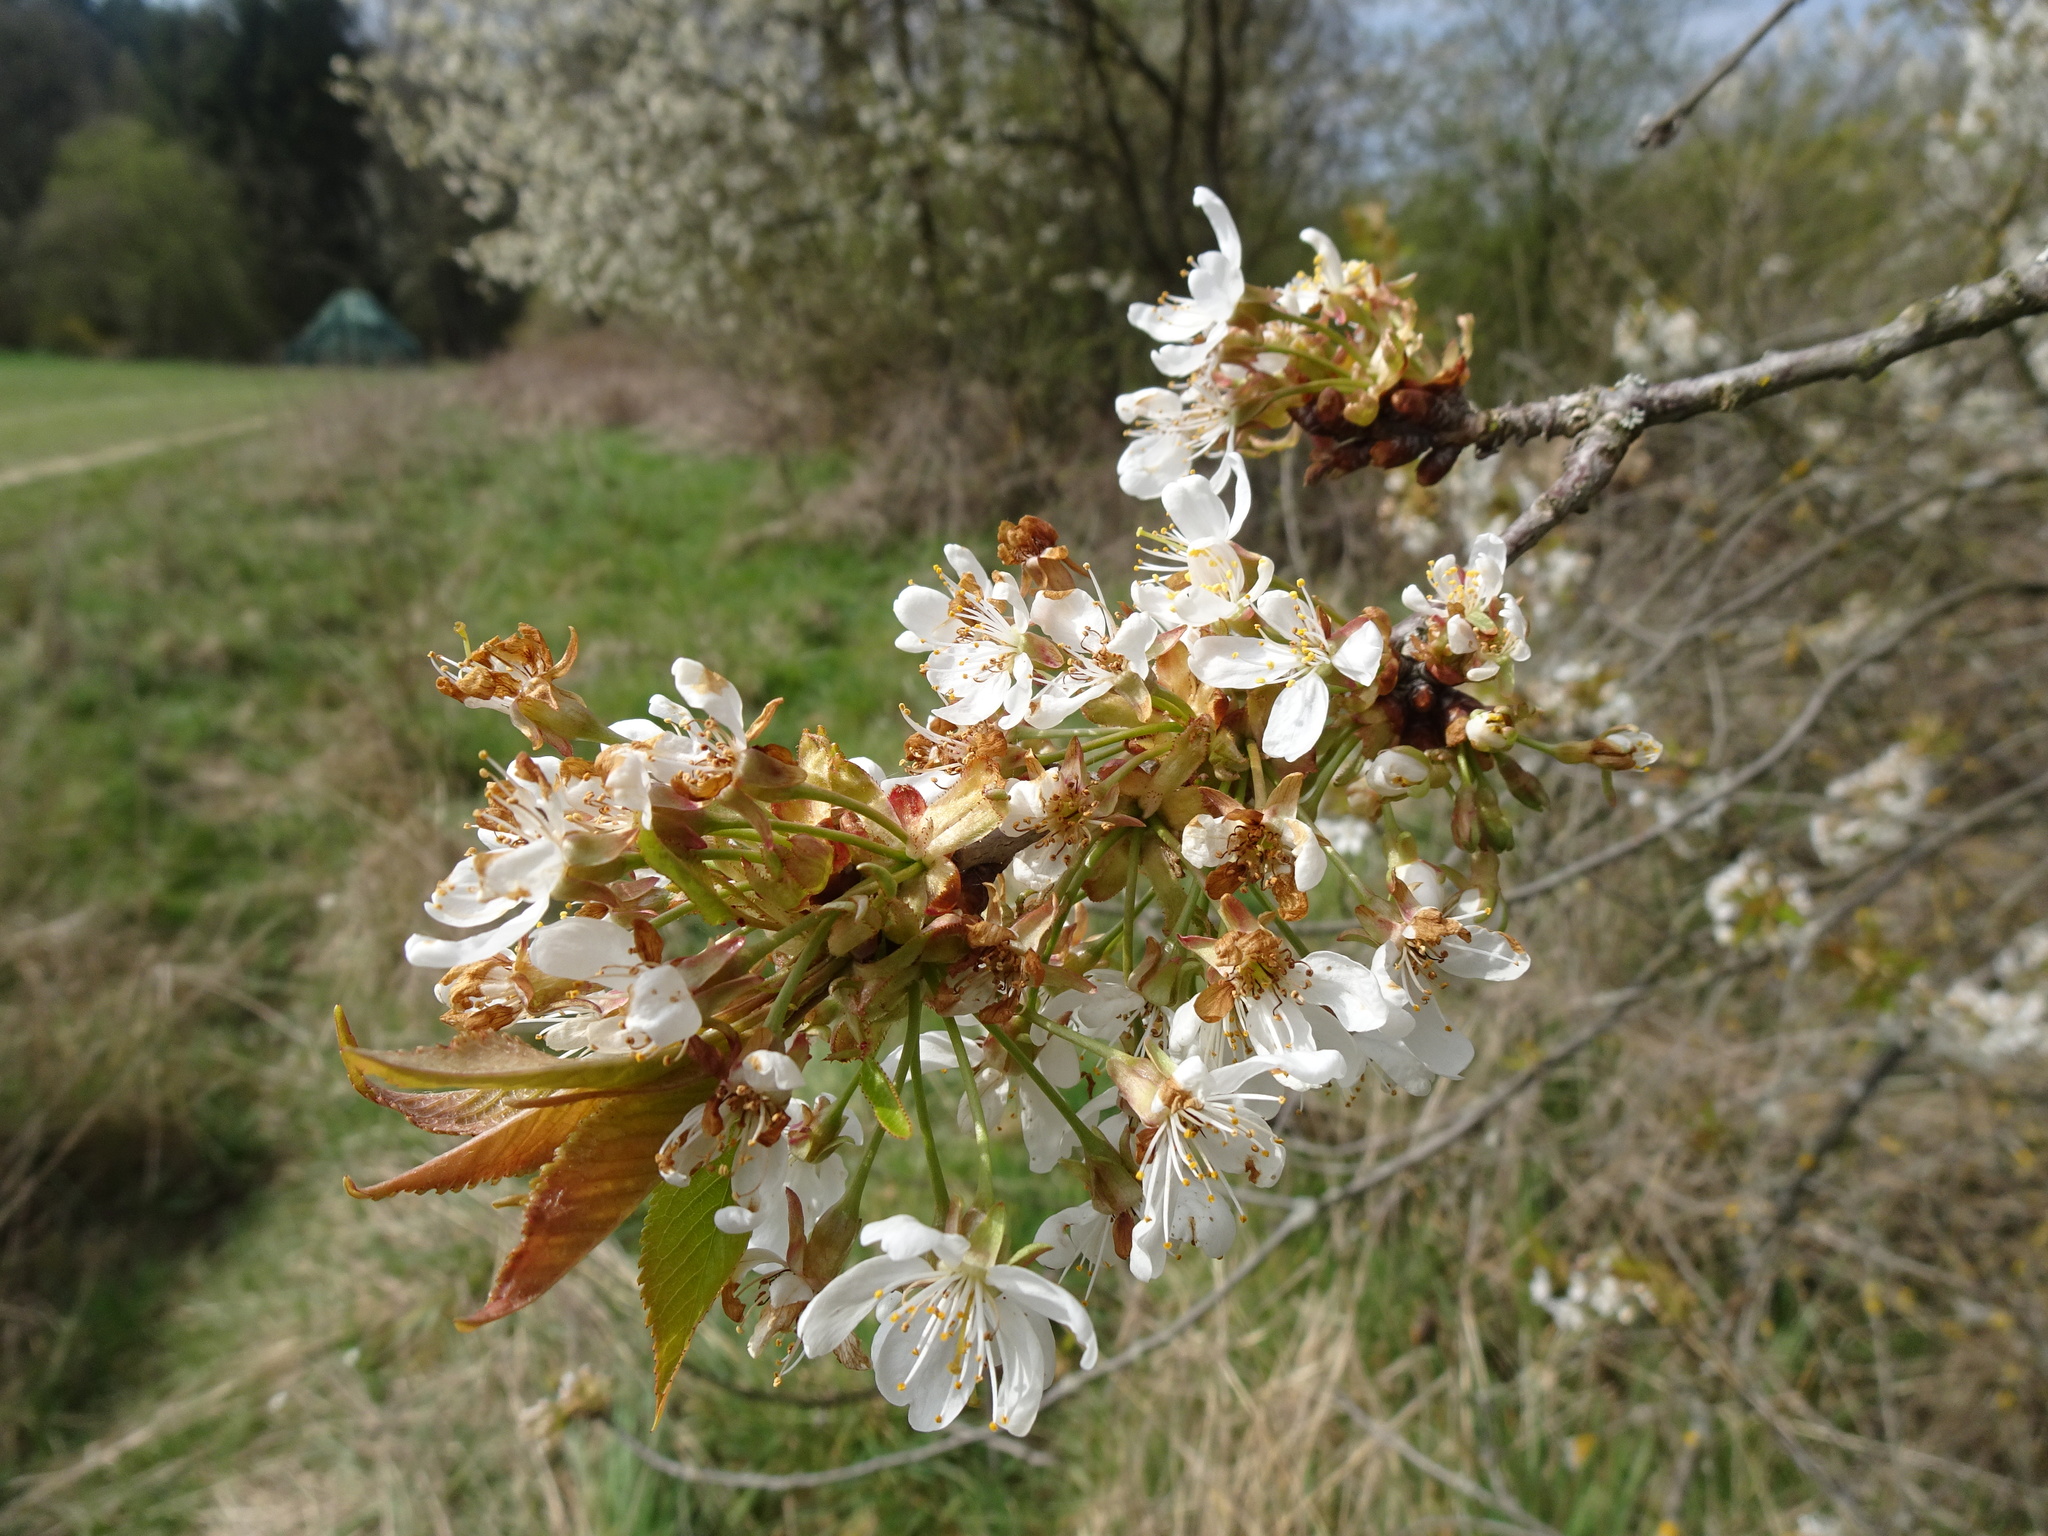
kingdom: Plantae
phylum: Tracheophyta
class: Magnoliopsida
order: Rosales
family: Rosaceae
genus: Prunus
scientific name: Prunus avium
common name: Sweet cherry
